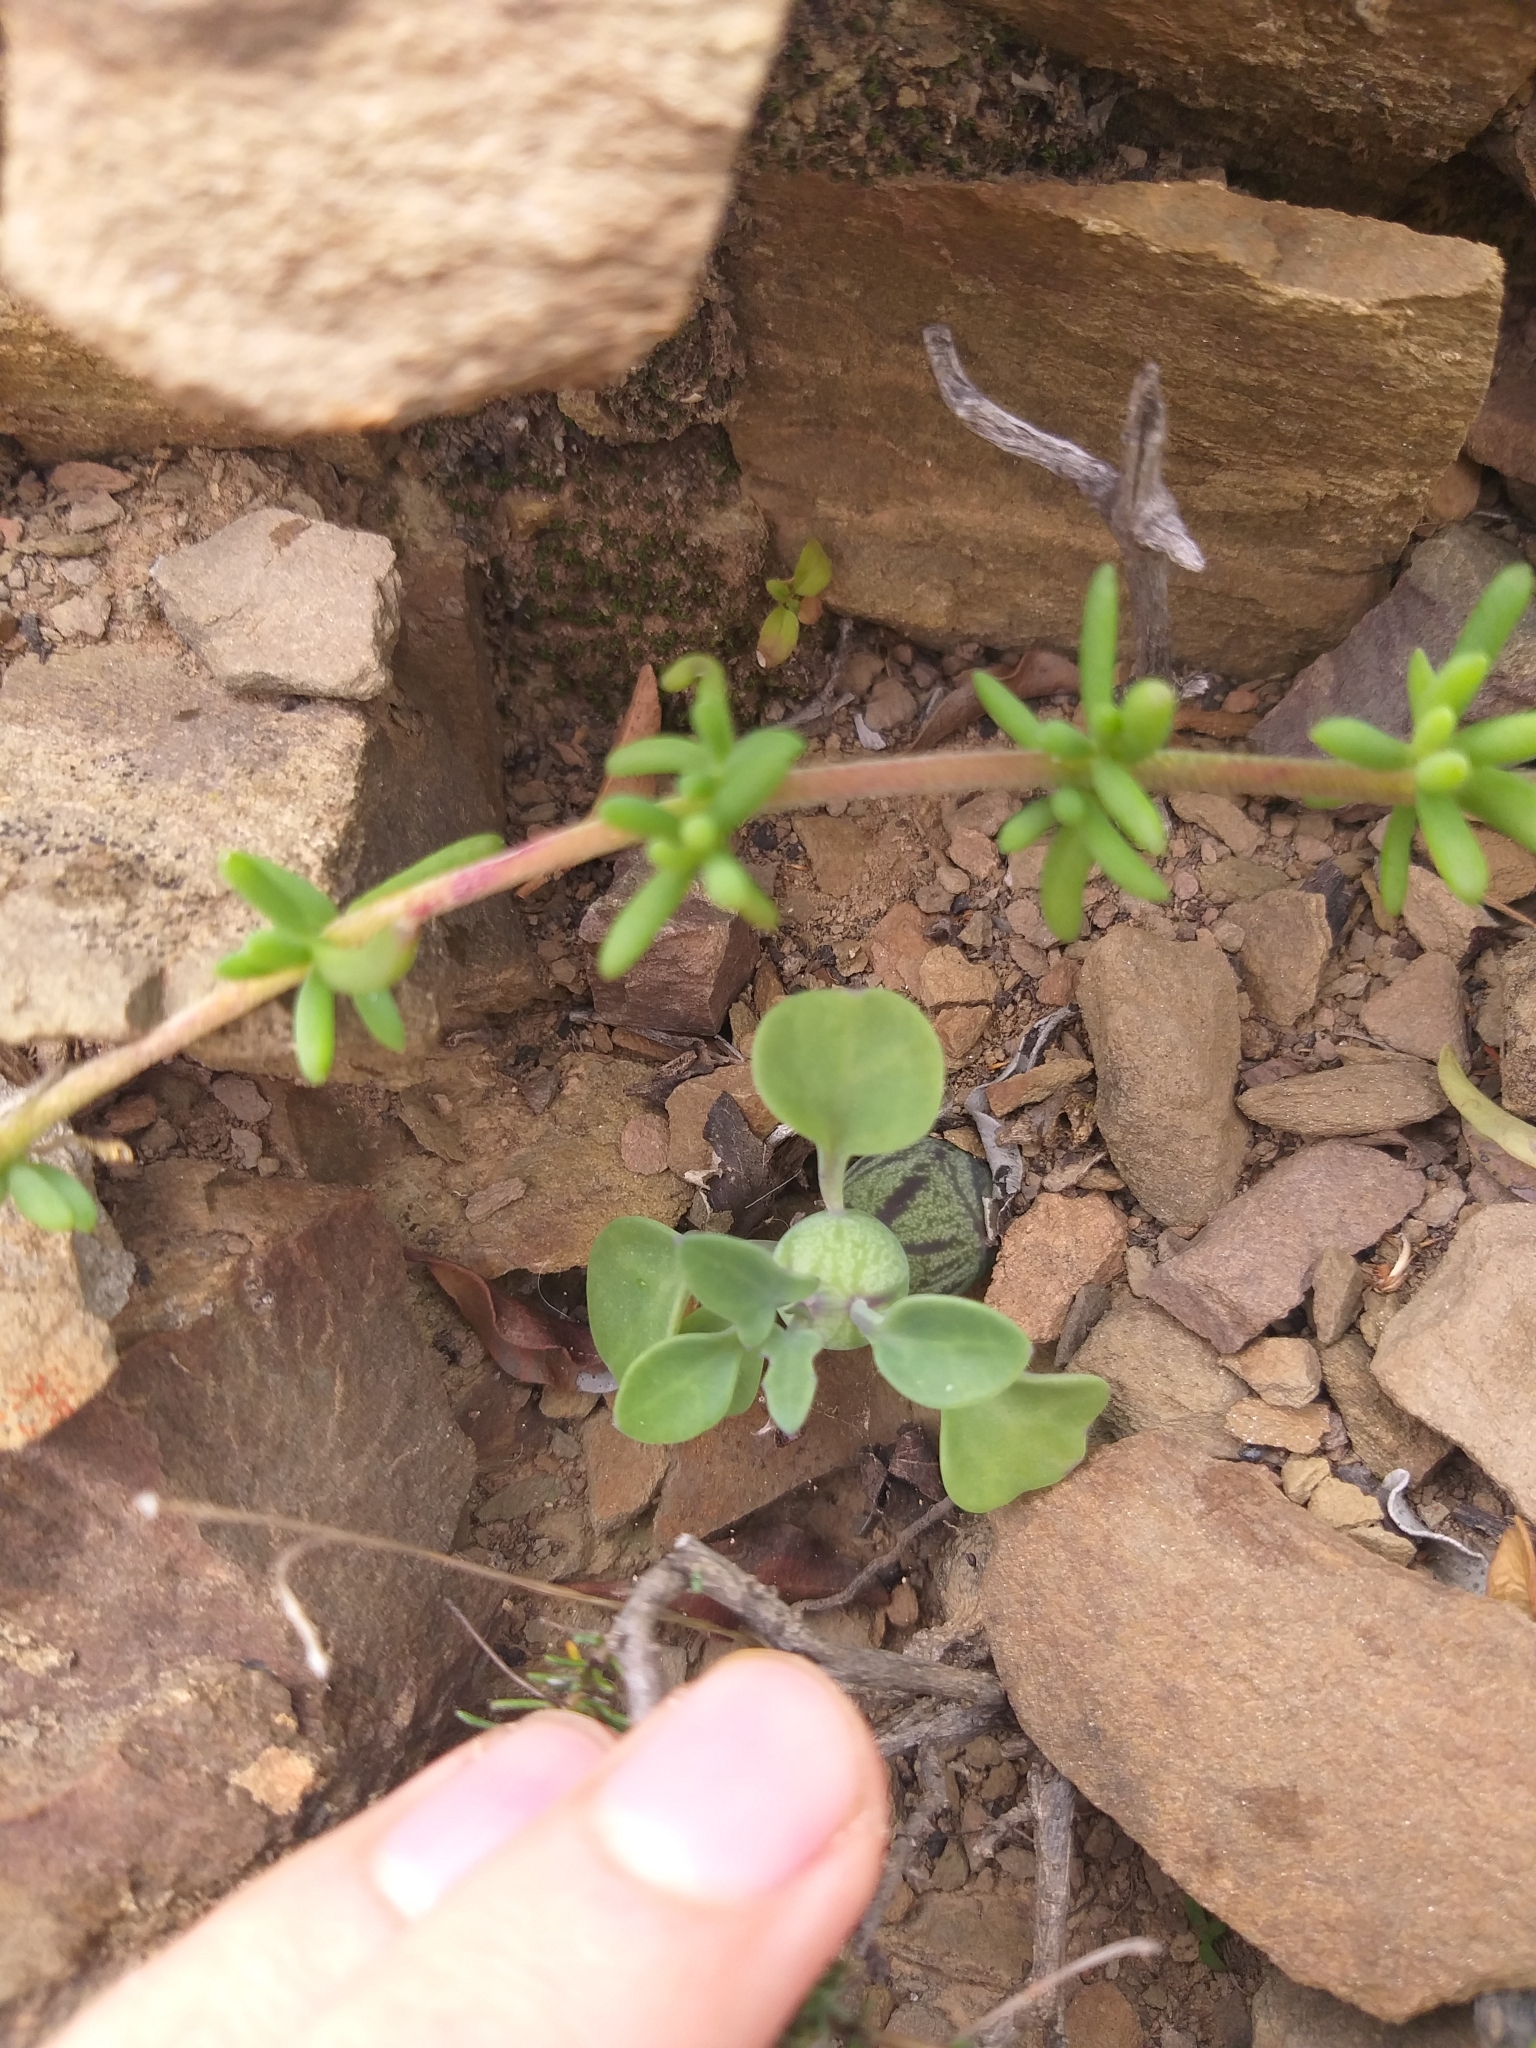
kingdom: Plantae
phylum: Tracheophyta
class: Magnoliopsida
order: Asterales
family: Asteraceae
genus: Curio
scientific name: Curio articulatus
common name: Candleplant
